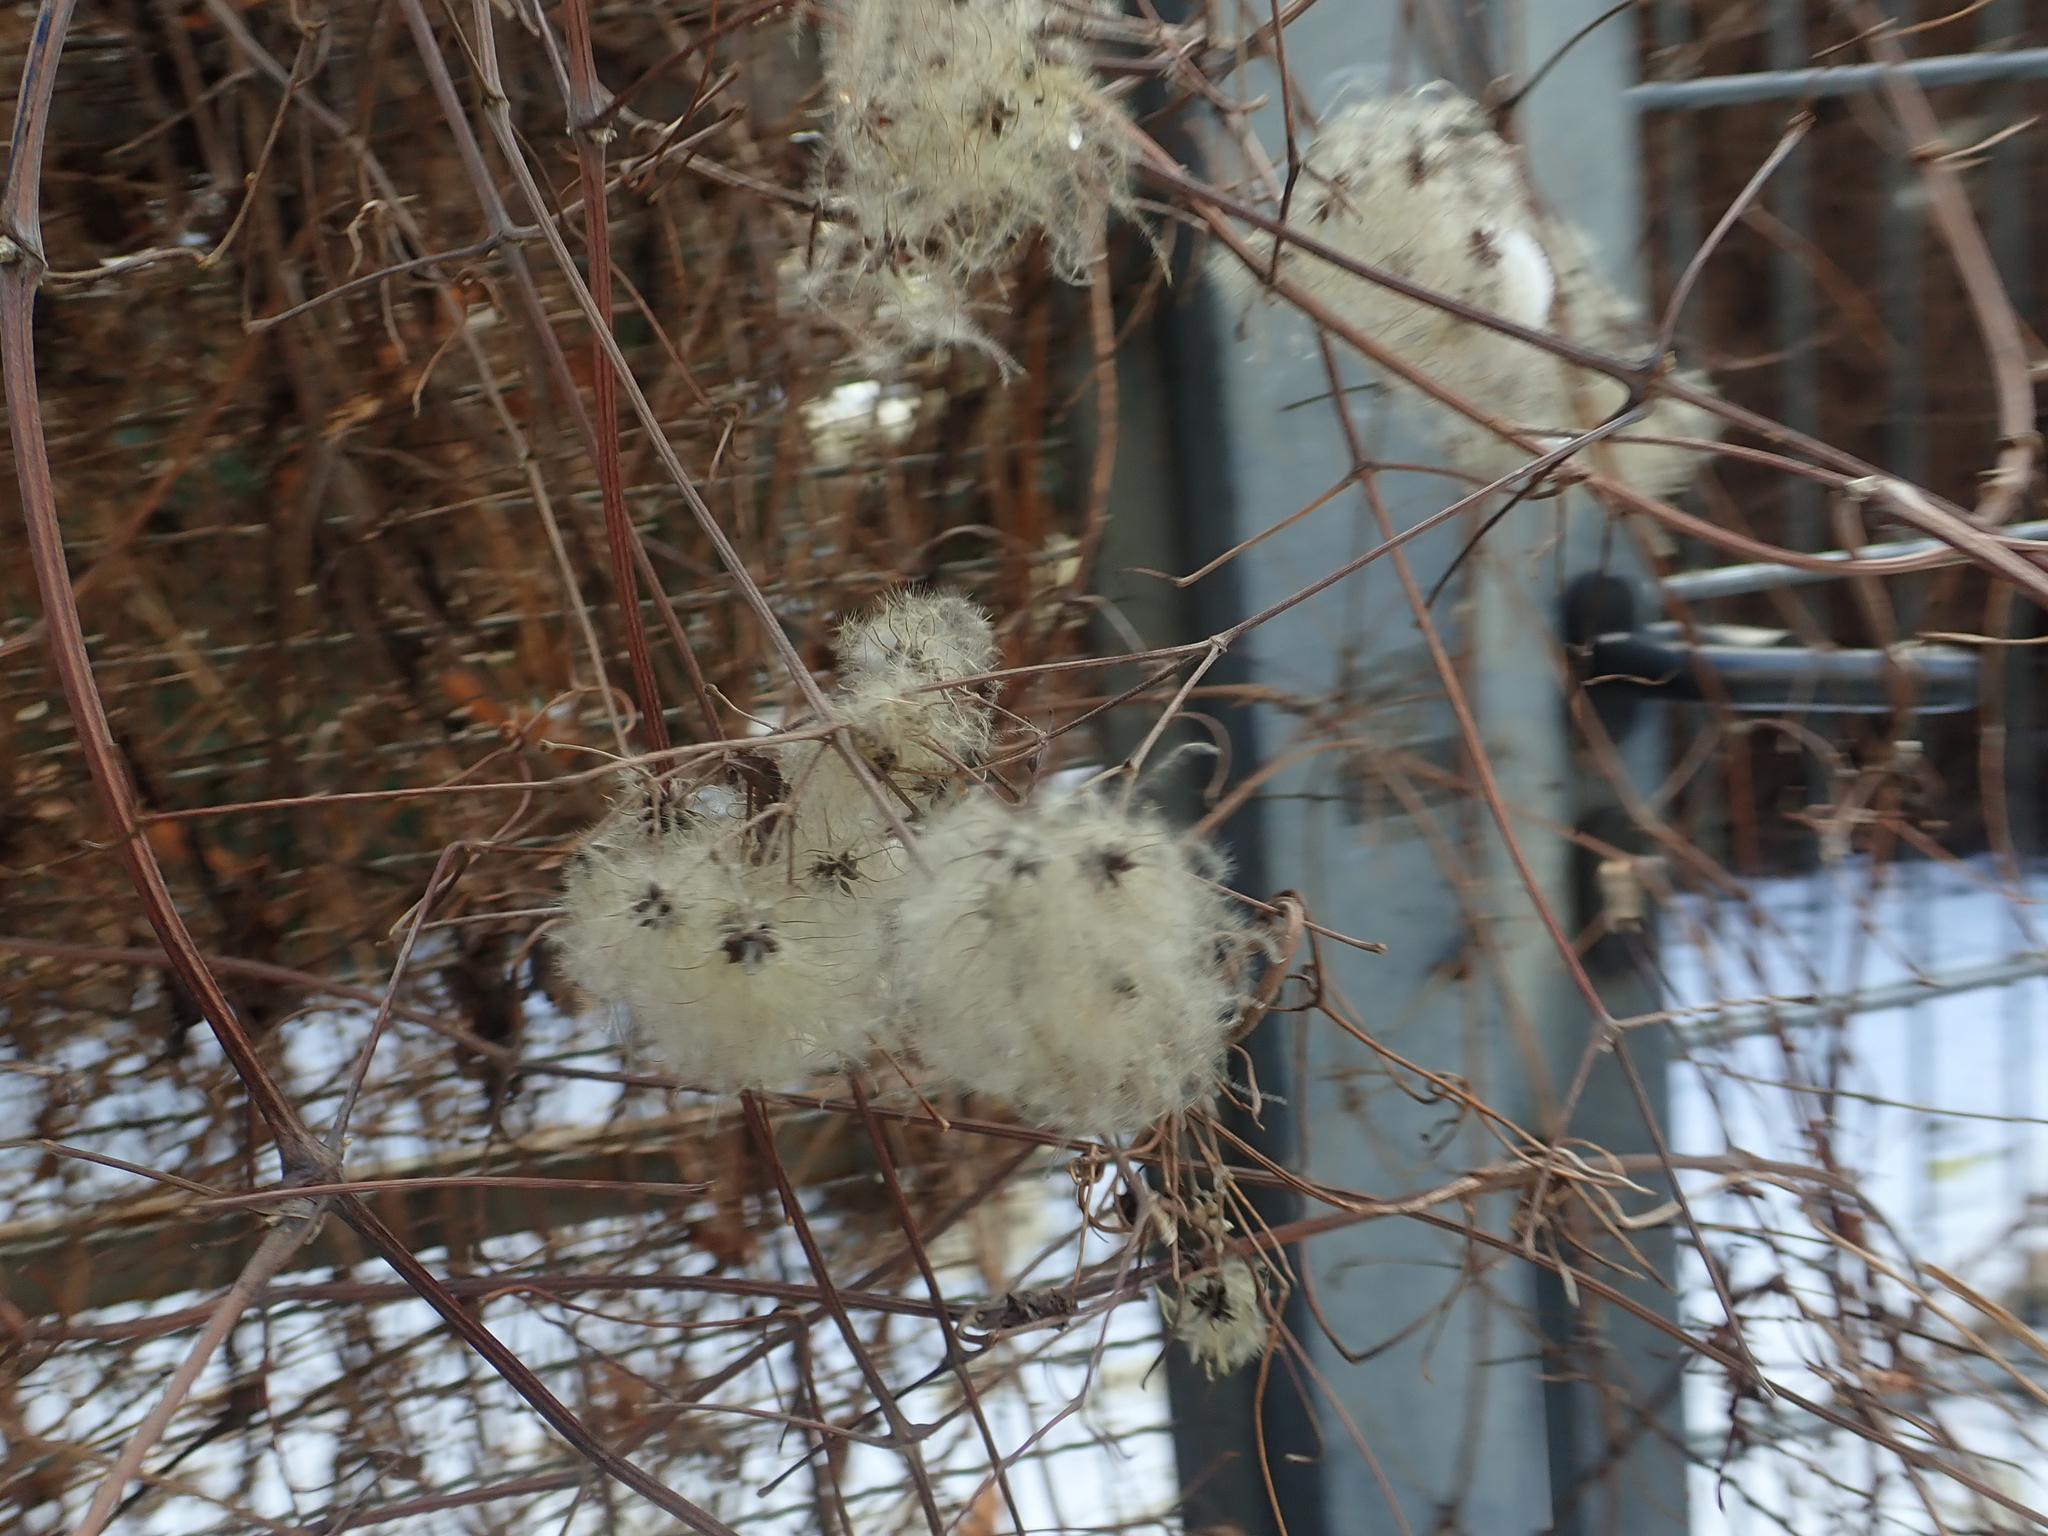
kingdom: Plantae
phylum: Tracheophyta
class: Magnoliopsida
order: Ranunculales
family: Ranunculaceae
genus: Clematis
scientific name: Clematis vitalba
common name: Evergreen clematis
